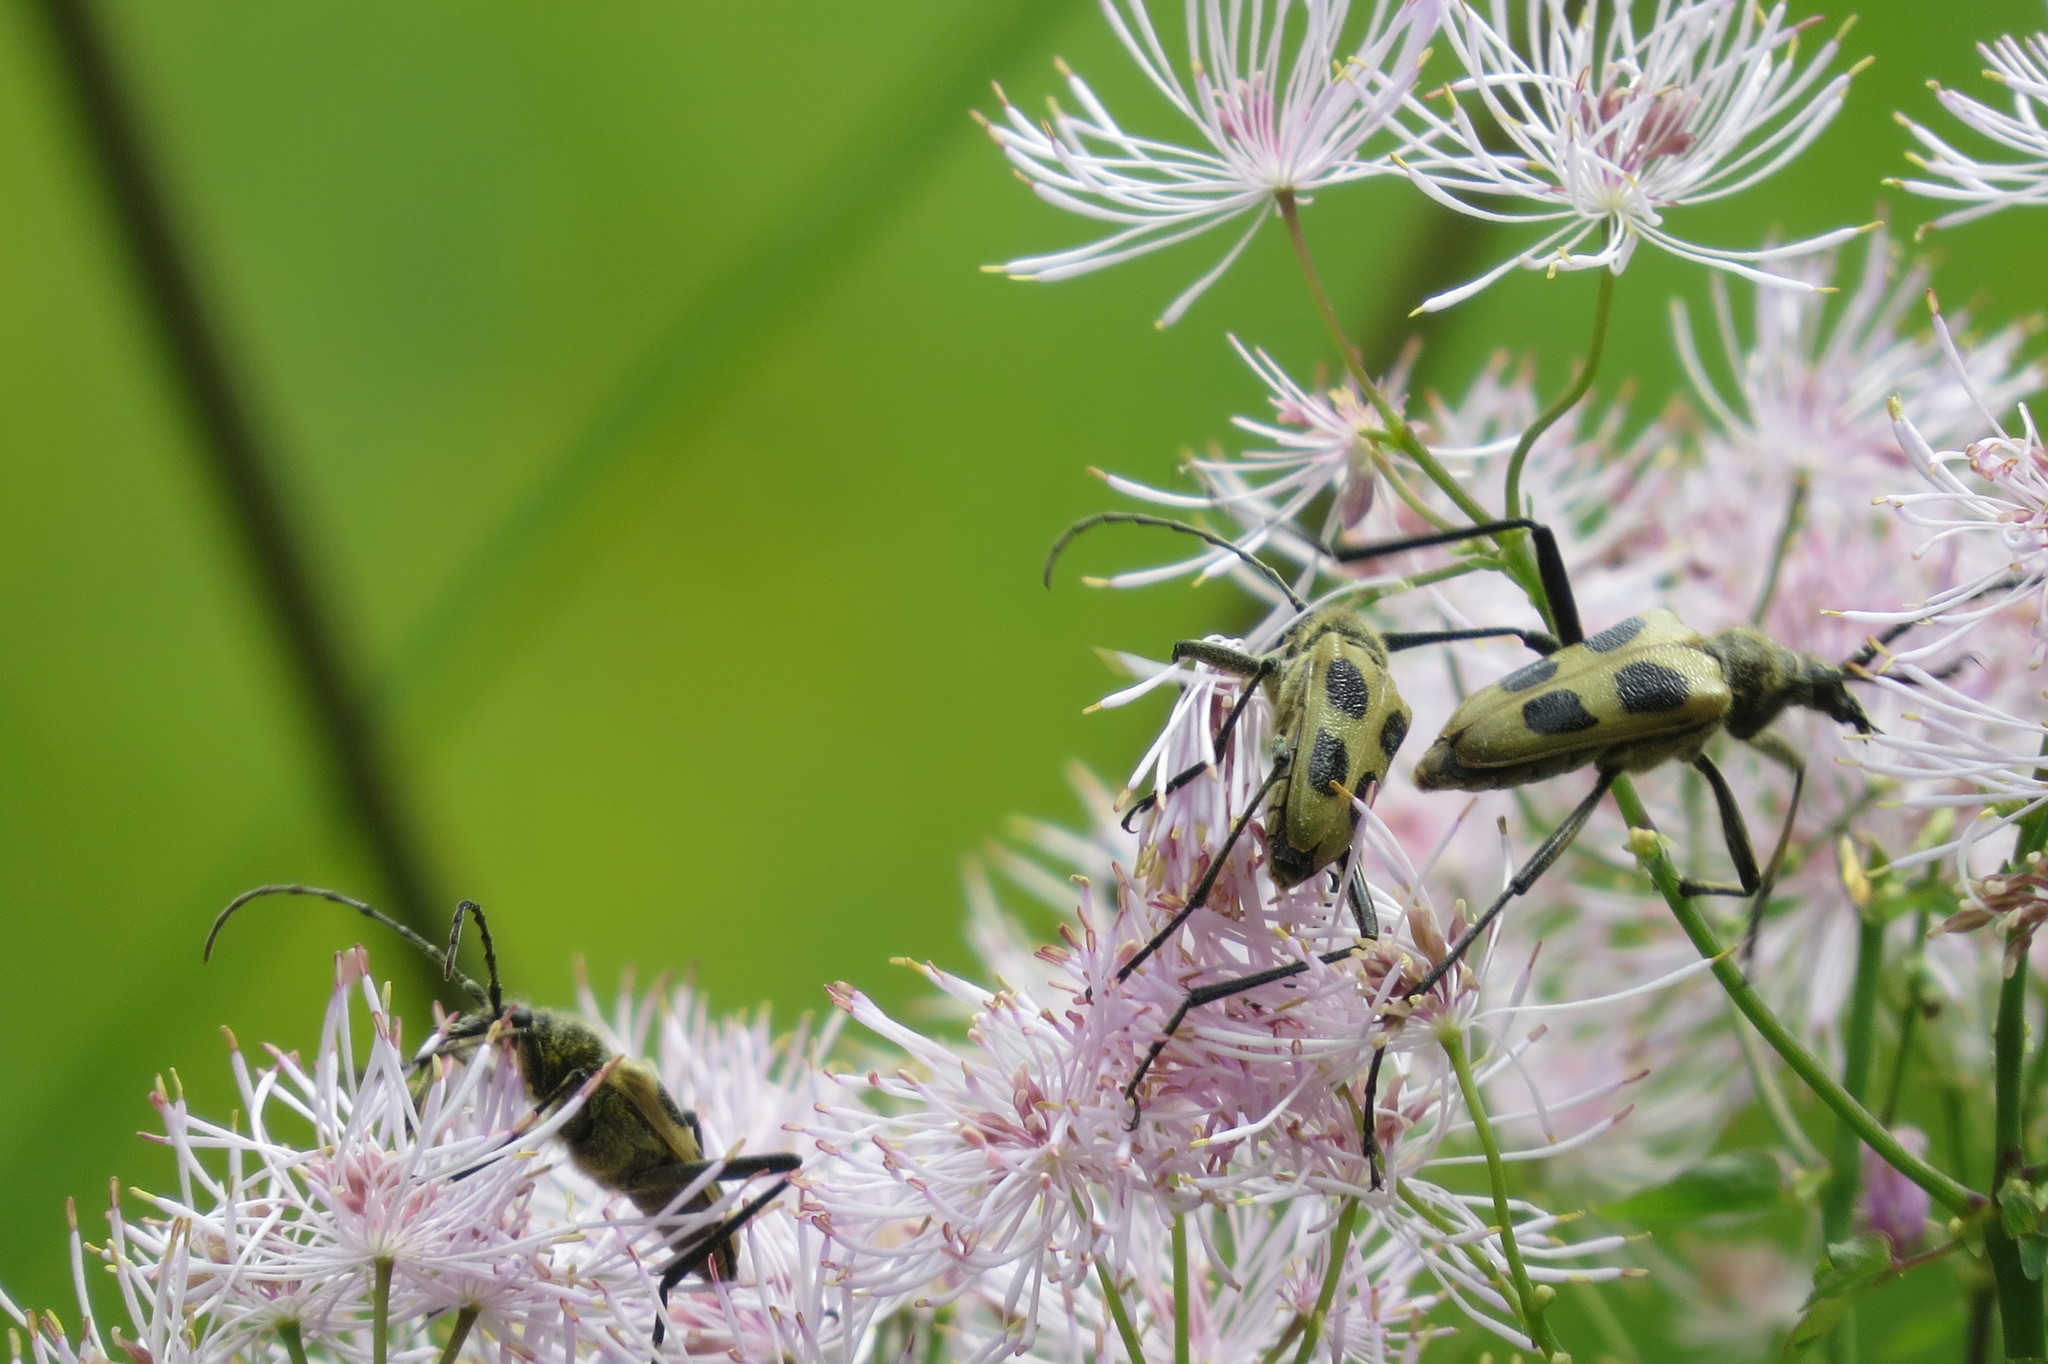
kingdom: Animalia
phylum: Arthropoda
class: Insecta
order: Coleoptera
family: Cerambycidae
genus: Pachyta
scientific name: Pachyta quadrimaculata
